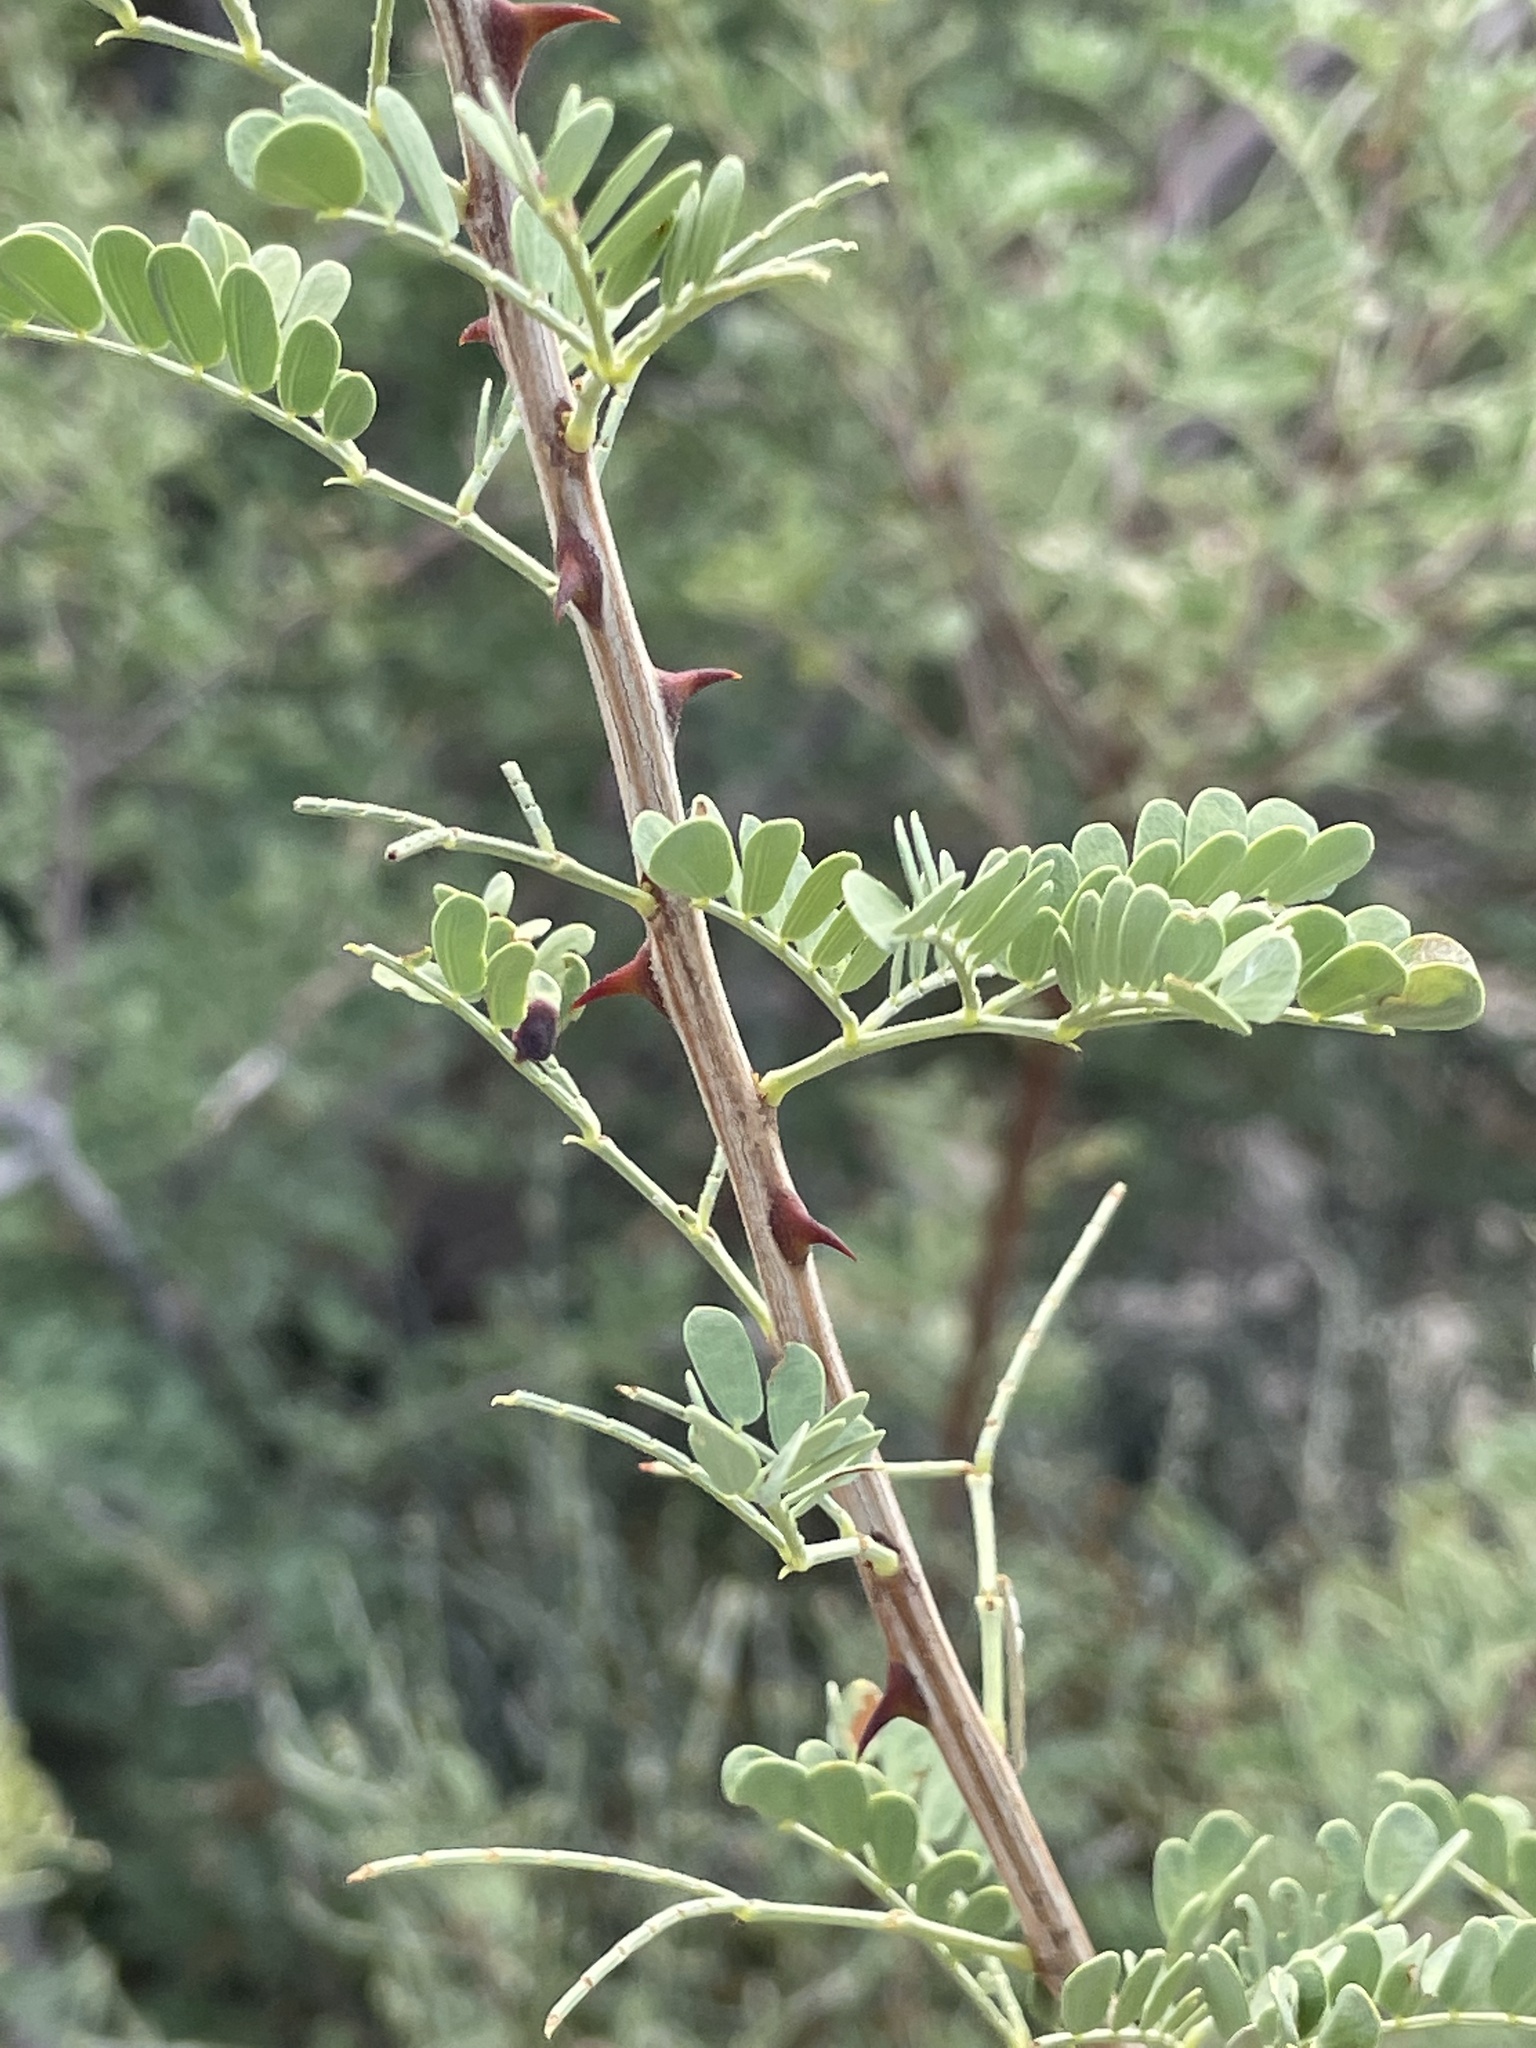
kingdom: Plantae
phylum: Tracheophyta
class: Magnoliopsida
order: Fabales
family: Fabaceae
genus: Senegalia
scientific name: Senegalia greggii
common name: Texas-mimosa
